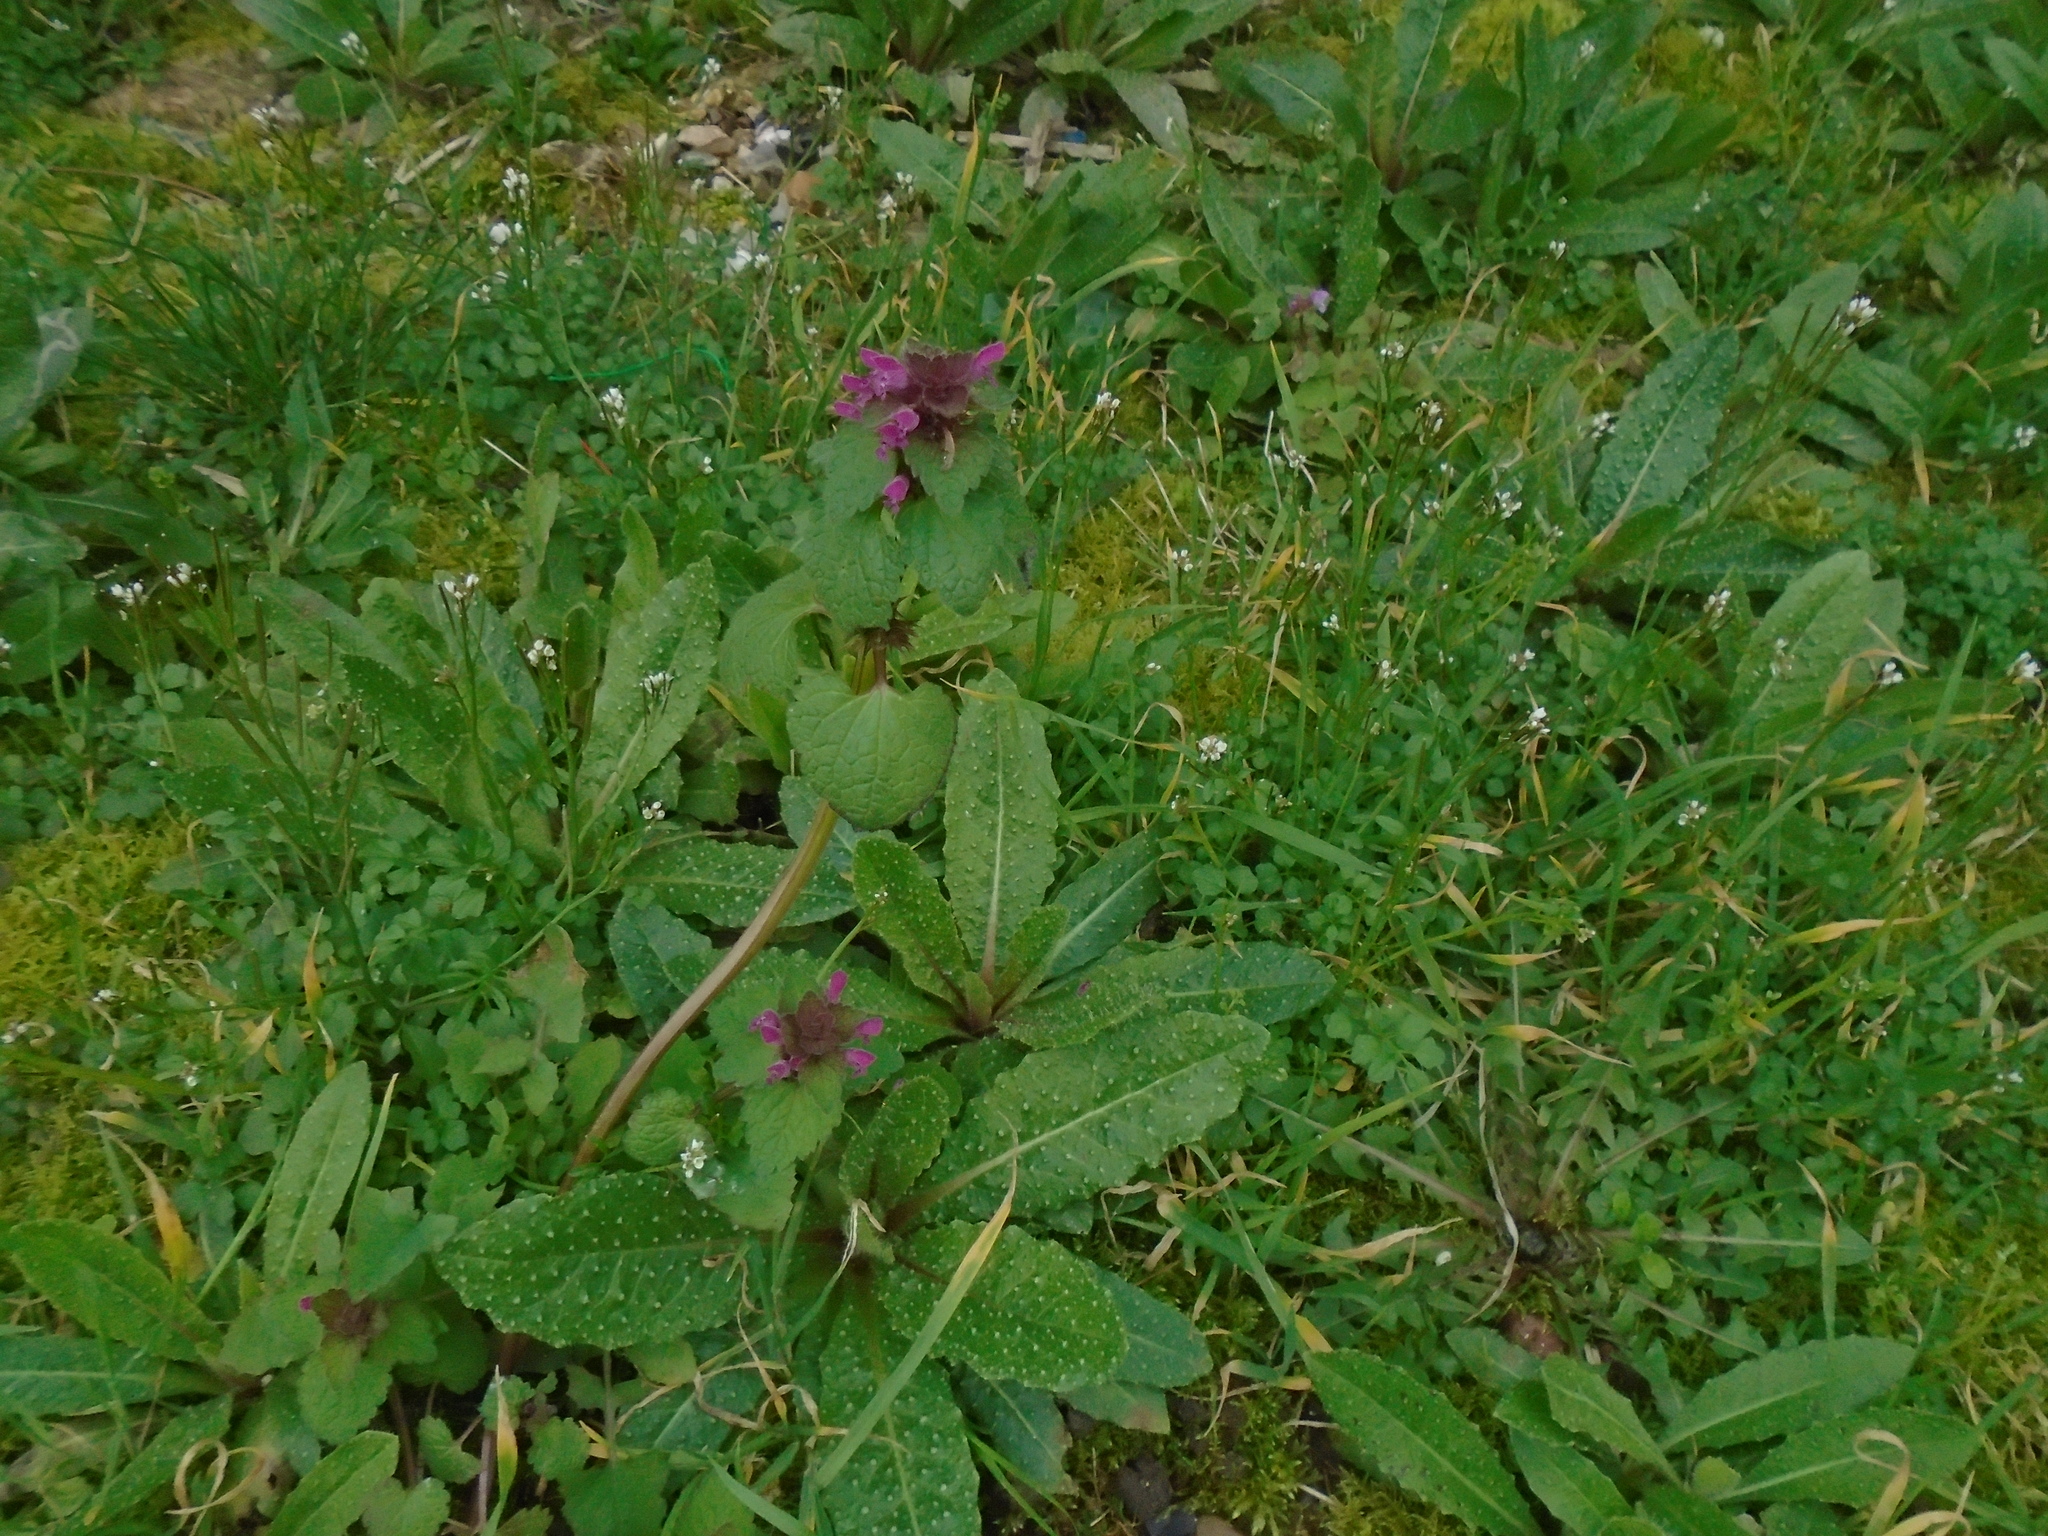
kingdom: Plantae
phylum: Tracheophyta
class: Magnoliopsida
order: Lamiales
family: Lamiaceae
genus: Lamium
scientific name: Lamium purpureum
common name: Red dead-nettle
